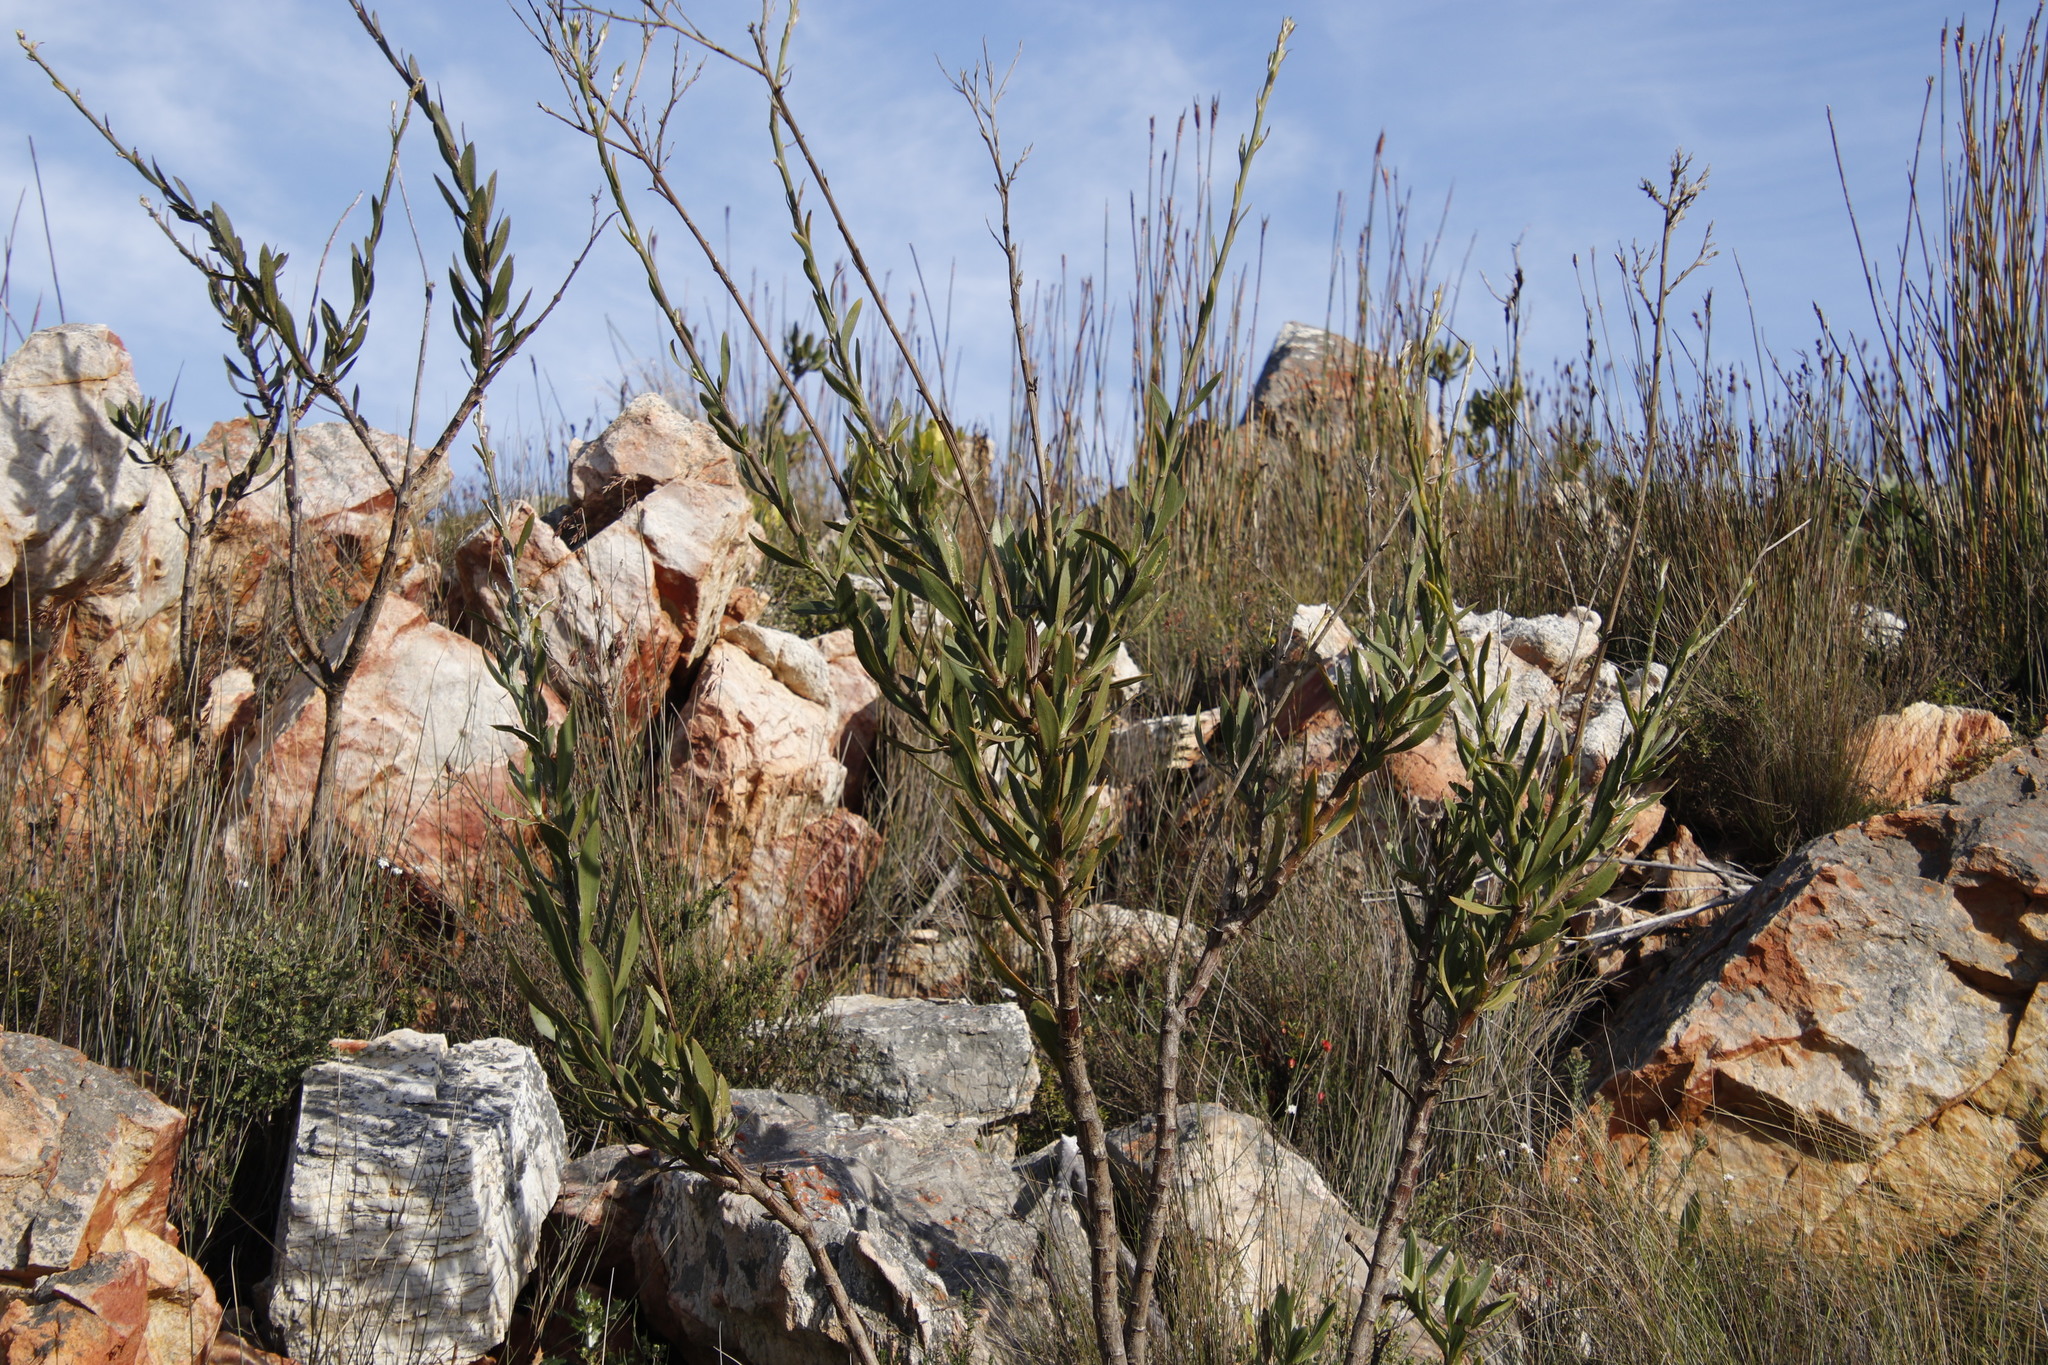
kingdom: Plantae
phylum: Tracheophyta
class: Magnoliopsida
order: Asterales
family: Asteraceae
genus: Osteospermum
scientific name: Osteospermum junceum
